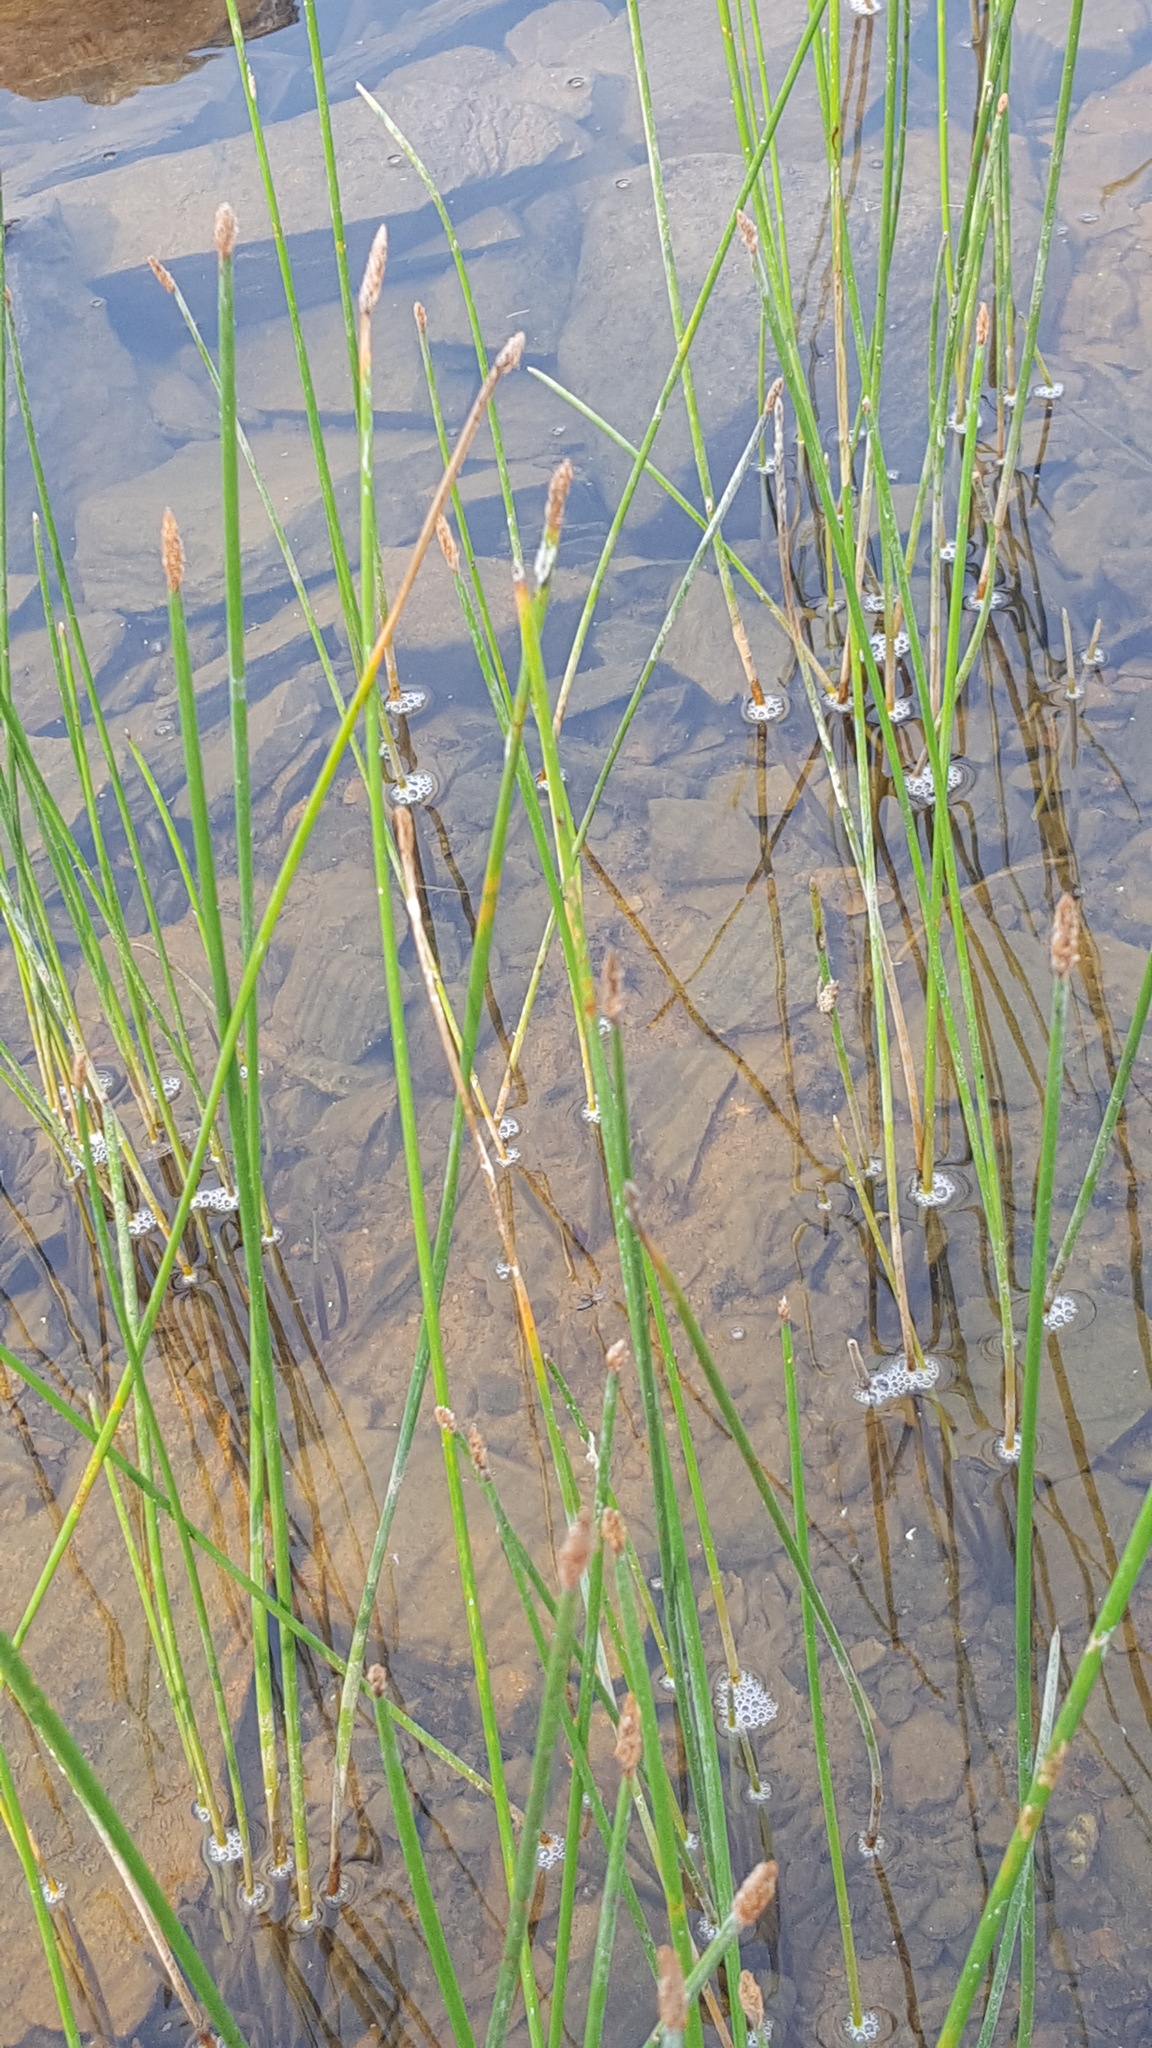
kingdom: Plantae
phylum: Tracheophyta
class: Liliopsida
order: Poales
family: Cyperaceae
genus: Eleocharis
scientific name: Eleocharis palustris
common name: Common spike-rush
